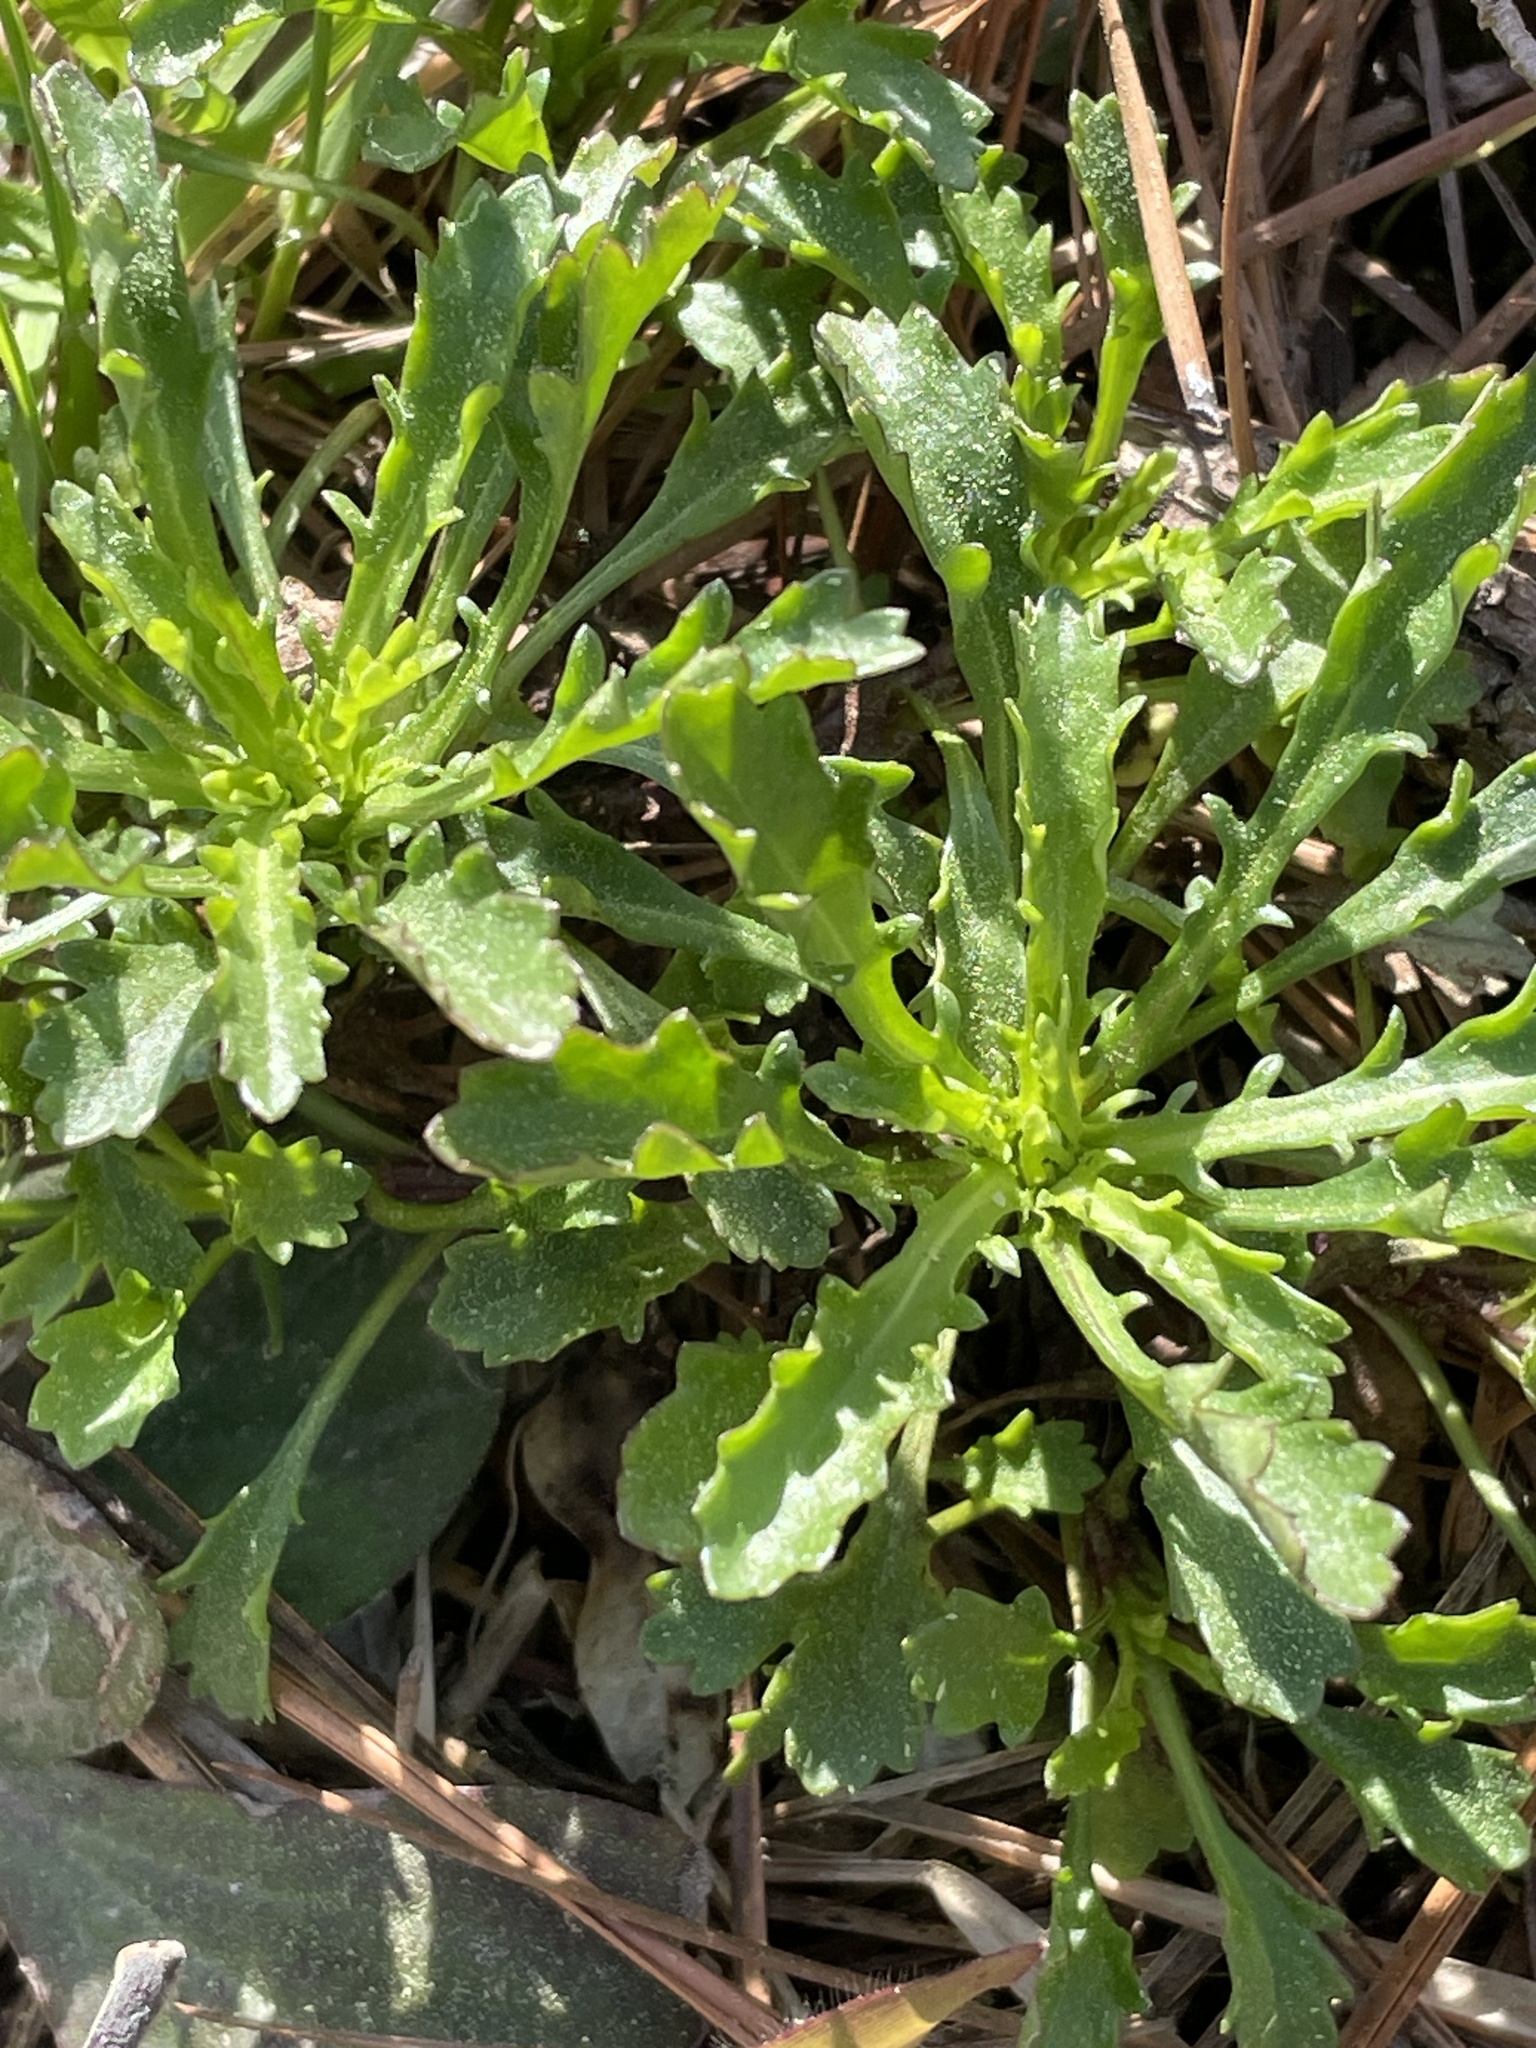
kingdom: Plantae
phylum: Tracheophyta
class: Magnoliopsida
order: Asterales
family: Asteraceae
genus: Leucanthemum
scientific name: Leucanthemum vulgare
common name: Oxeye daisy
